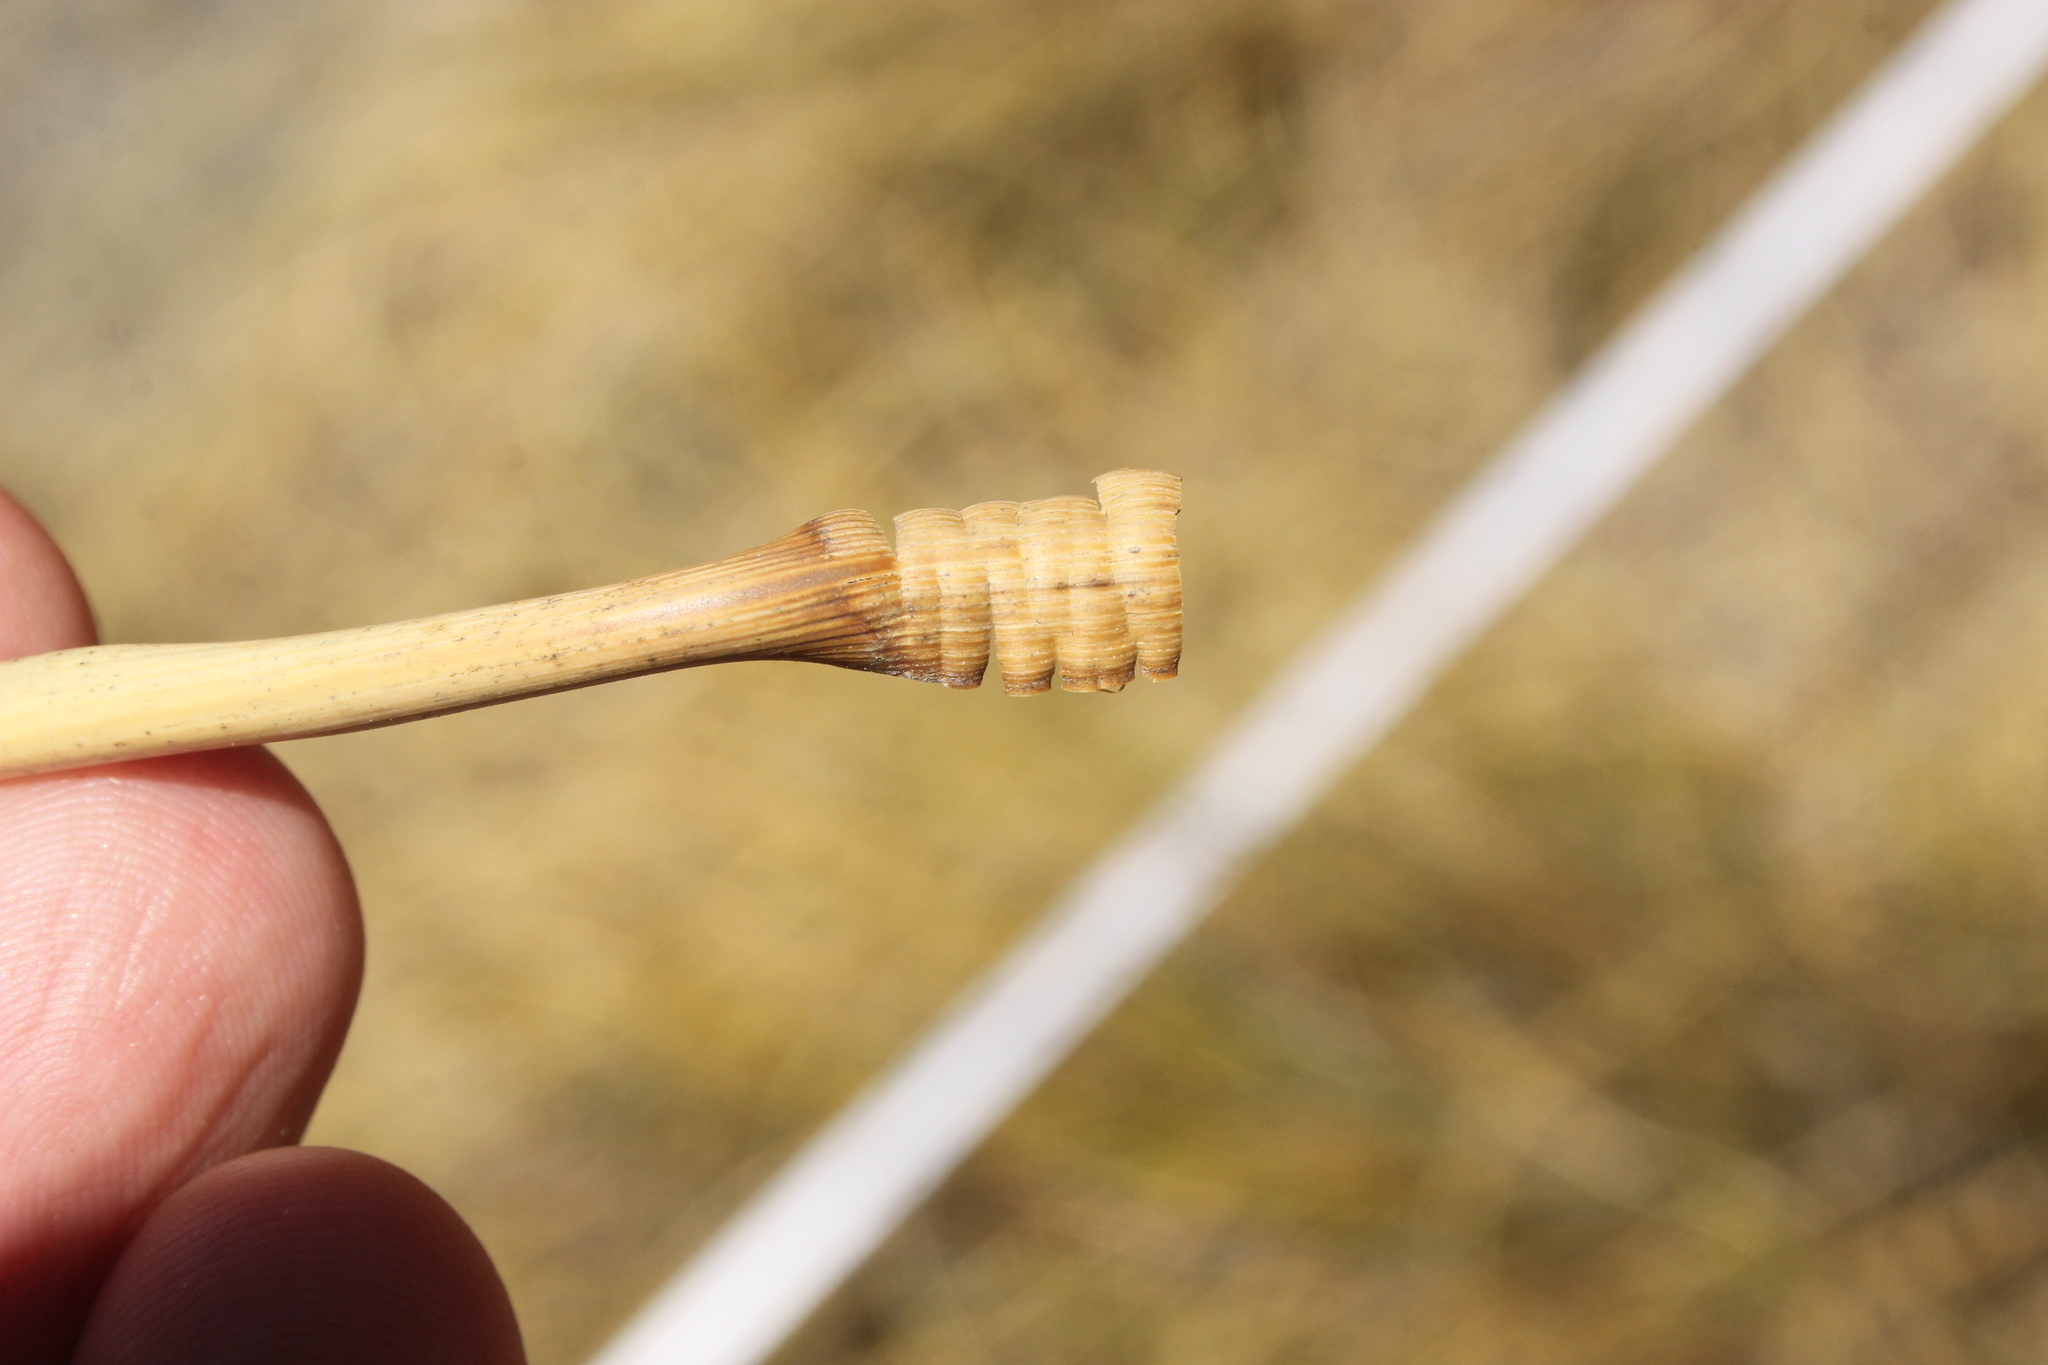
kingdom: Plantae
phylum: Tracheophyta
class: Liliopsida
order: Poales
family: Poaceae
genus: Chionochloa
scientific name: Chionochloa rigida
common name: Narrow leaved snow tussock
